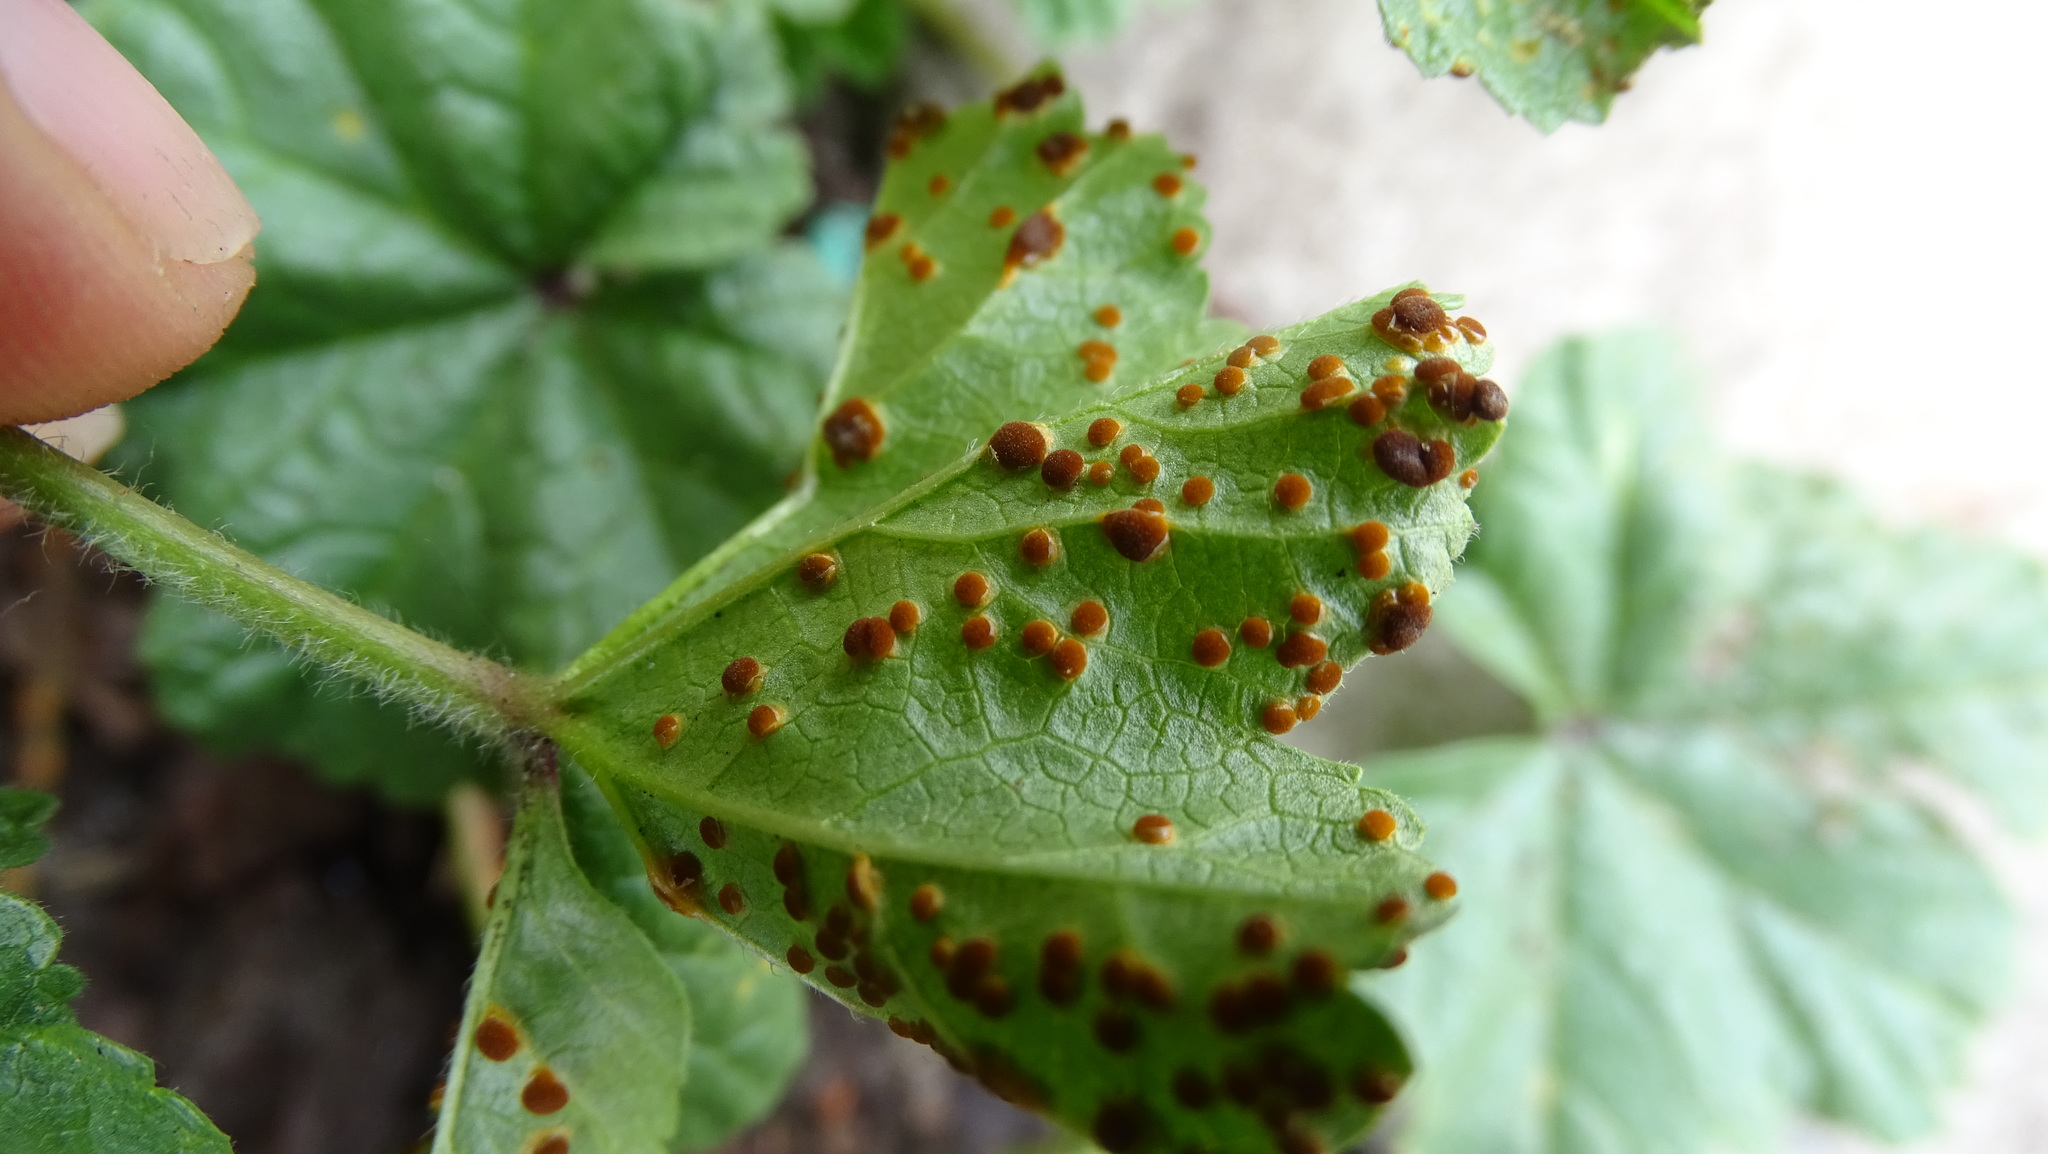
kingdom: Fungi
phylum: Basidiomycota
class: Pucciniomycetes
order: Pucciniales
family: Pucciniaceae
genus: Puccinia
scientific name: Puccinia malvacearum
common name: Hollyhock rust
